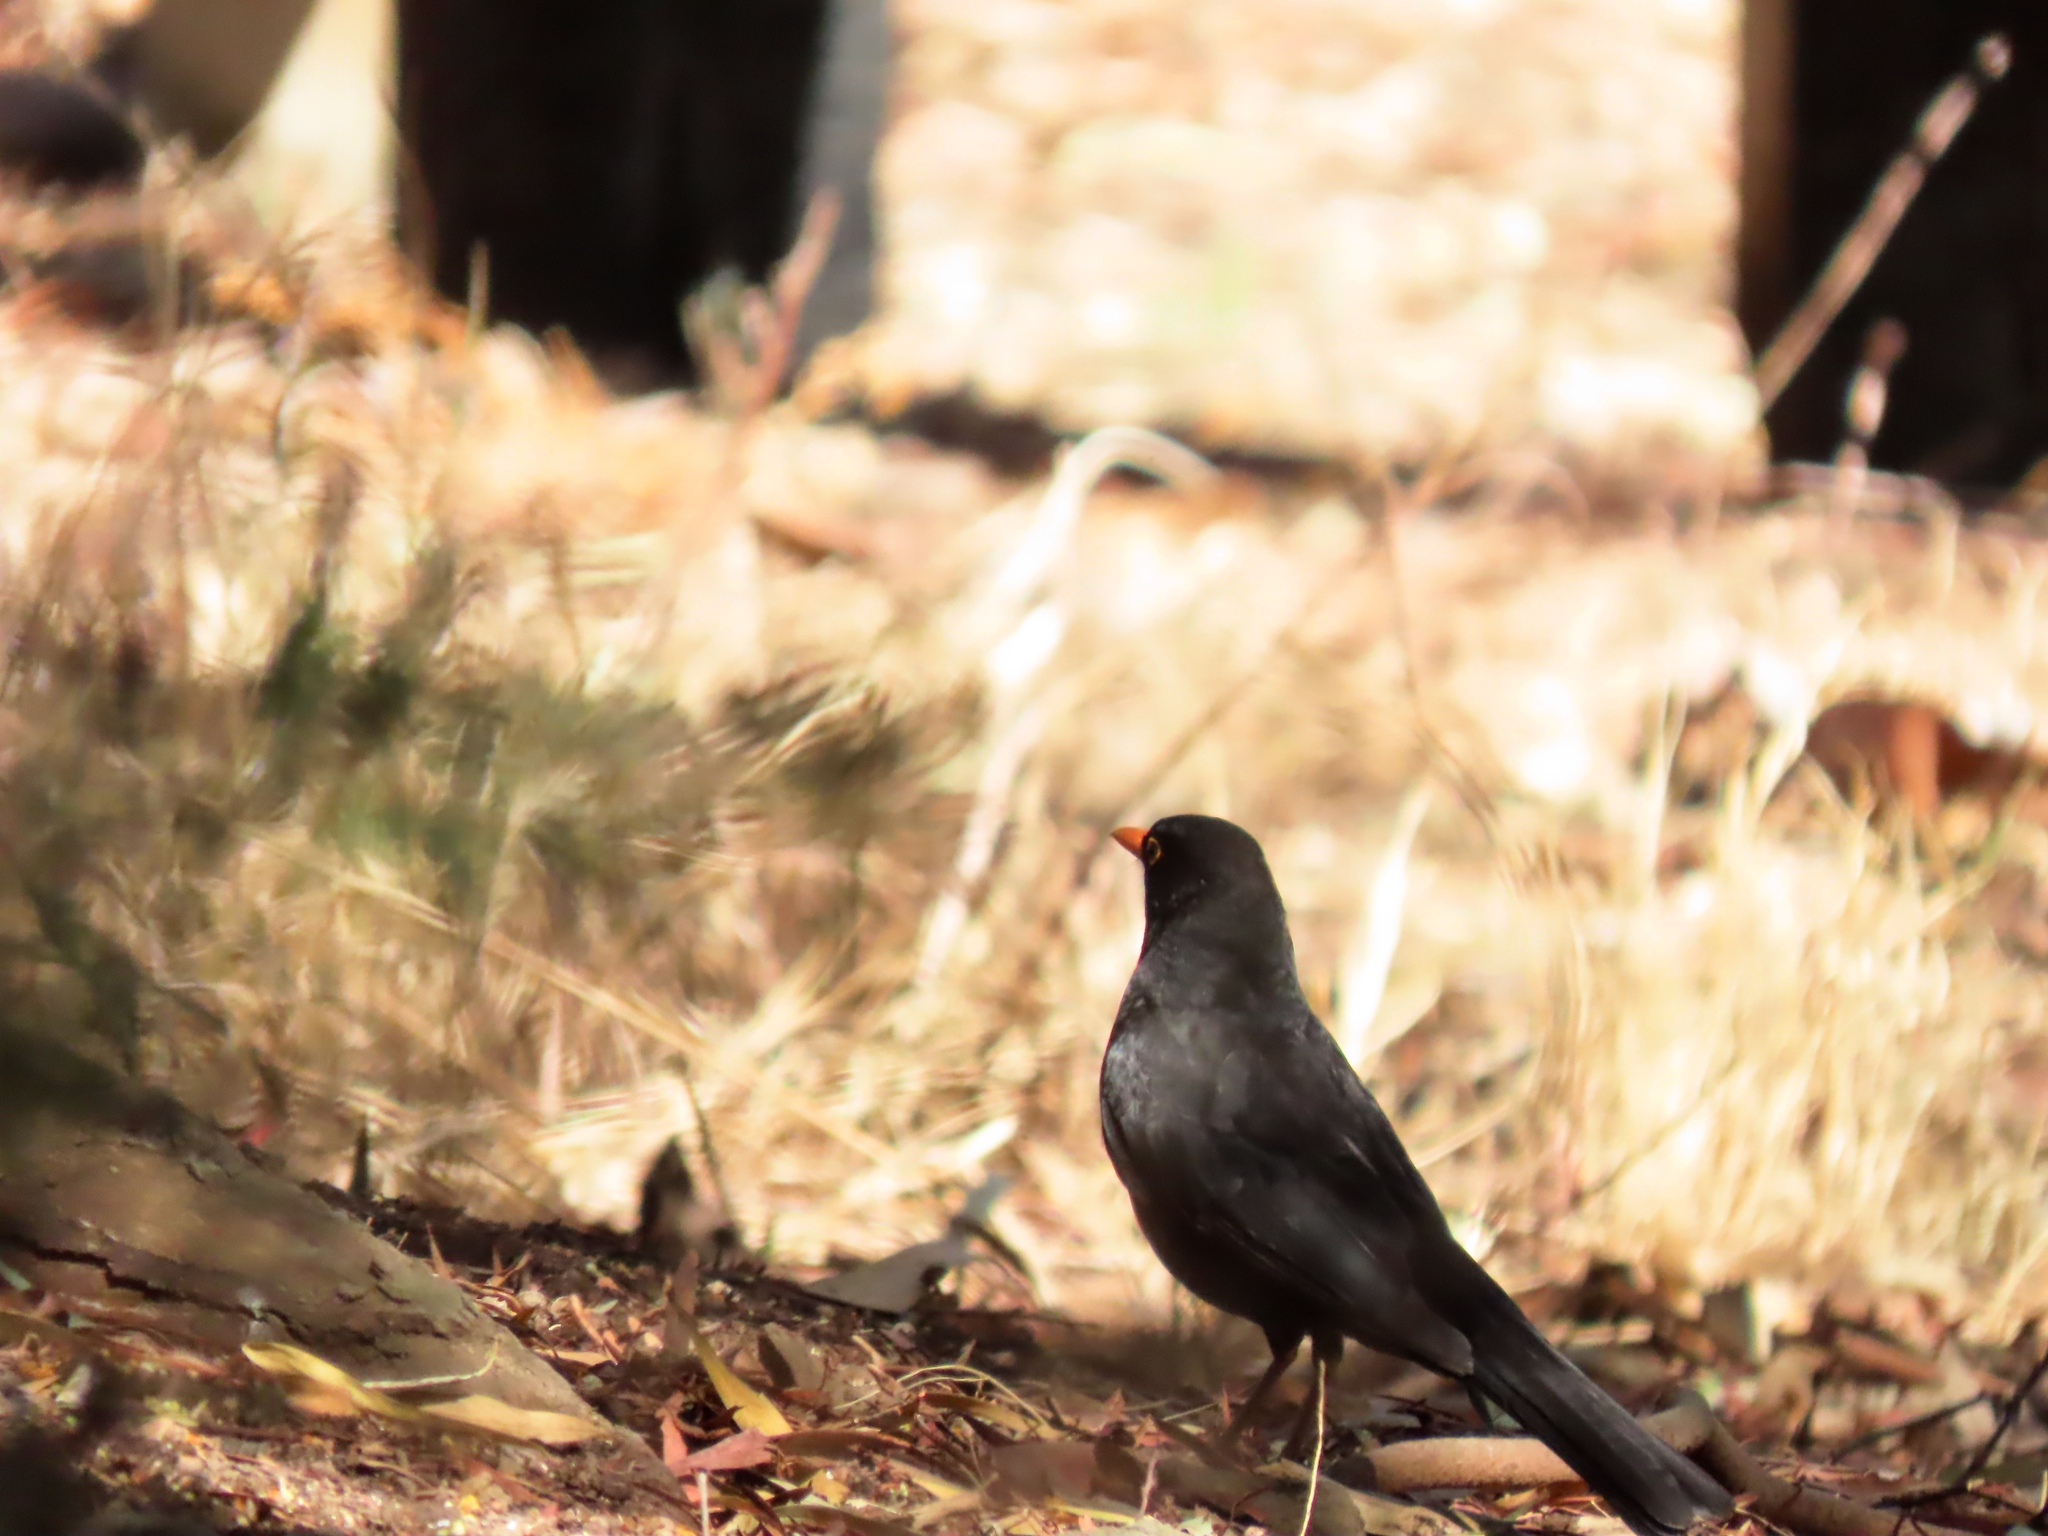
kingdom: Animalia
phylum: Chordata
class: Aves
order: Passeriformes
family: Turdidae
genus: Turdus
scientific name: Turdus merula
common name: Common blackbird
